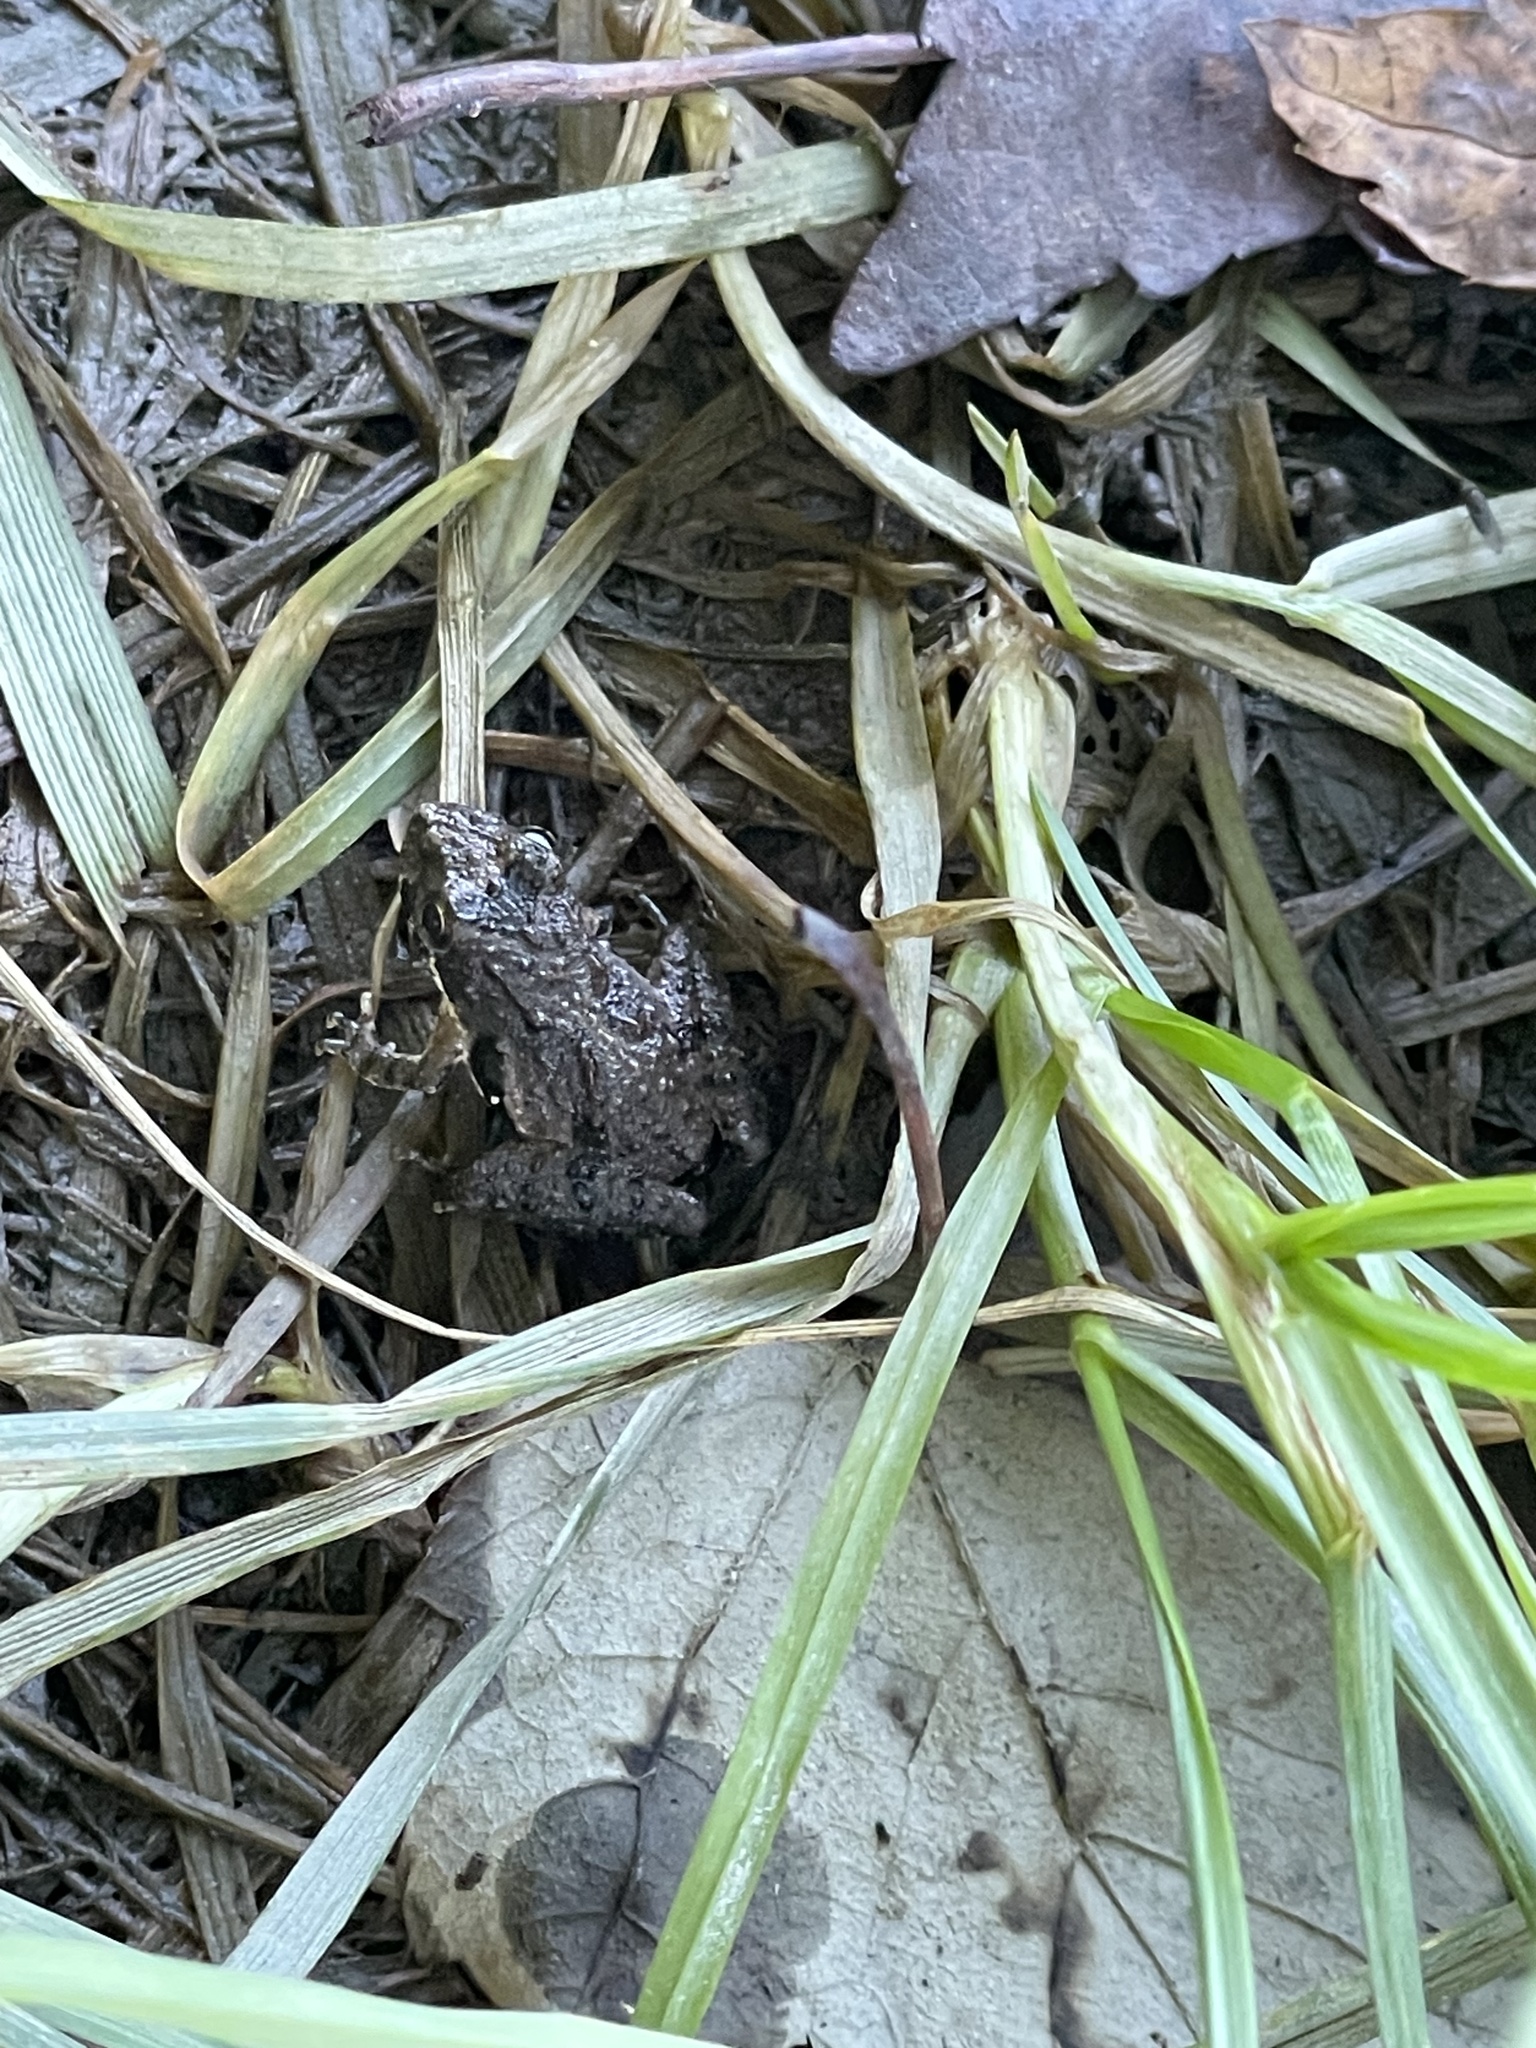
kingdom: Animalia
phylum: Chordata
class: Amphibia
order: Anura
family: Hylidae
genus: Acris
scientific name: Acris crepitans
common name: Northern cricket frog
